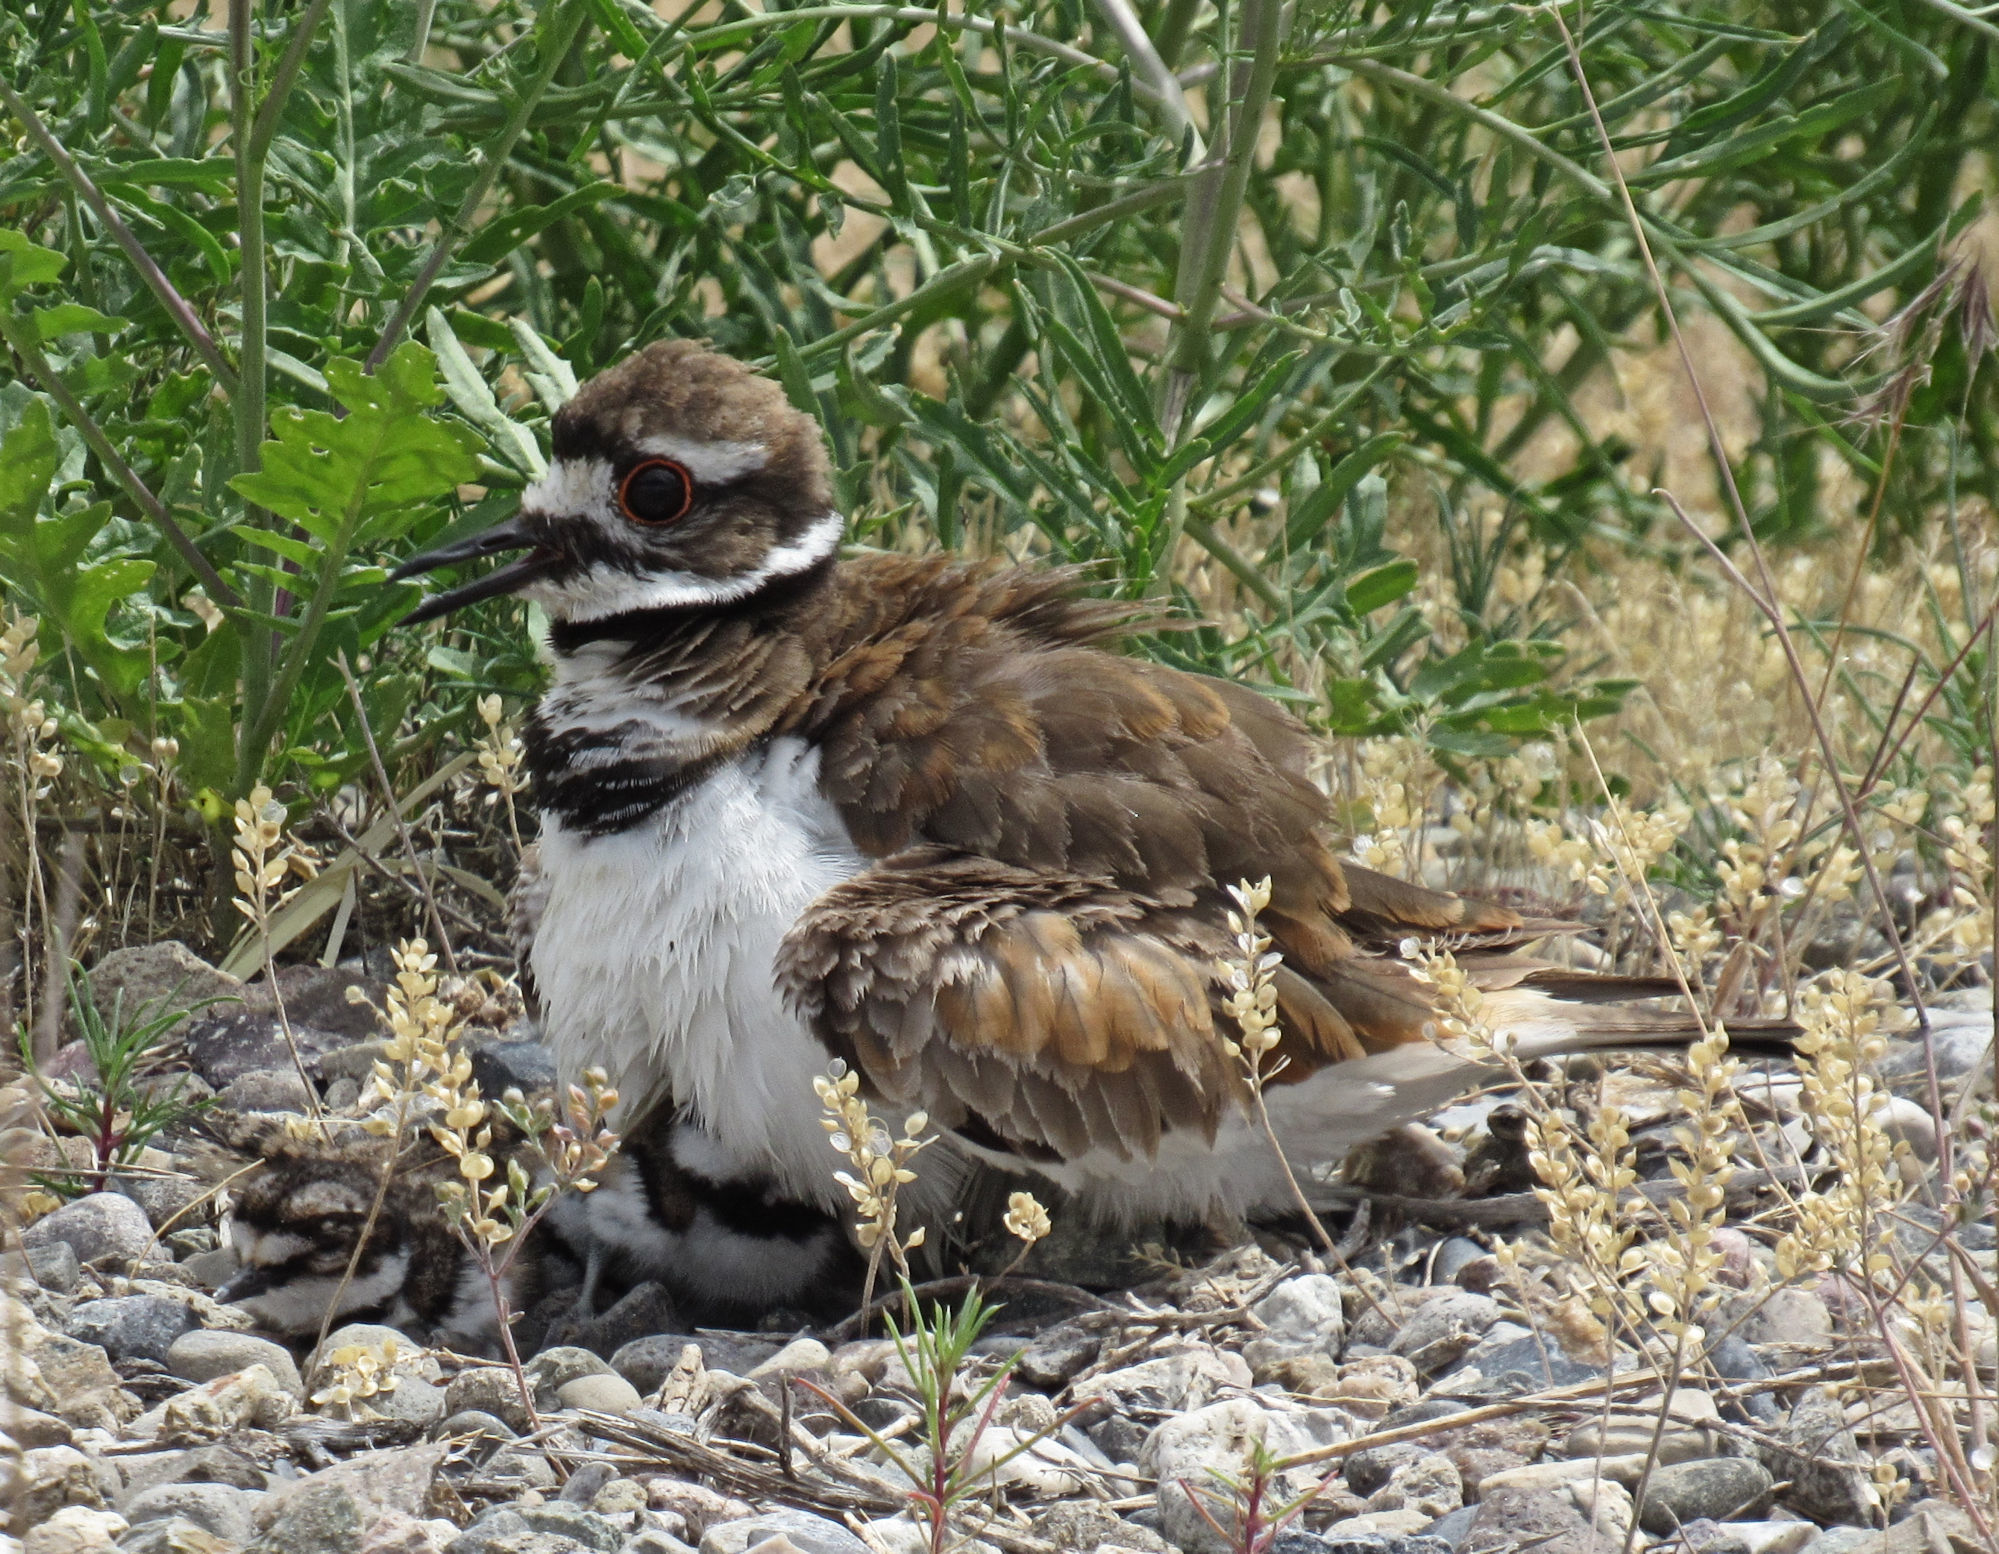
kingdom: Animalia
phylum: Chordata
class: Aves
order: Charadriiformes
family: Charadriidae
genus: Charadrius
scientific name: Charadrius vociferus
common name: Killdeer
